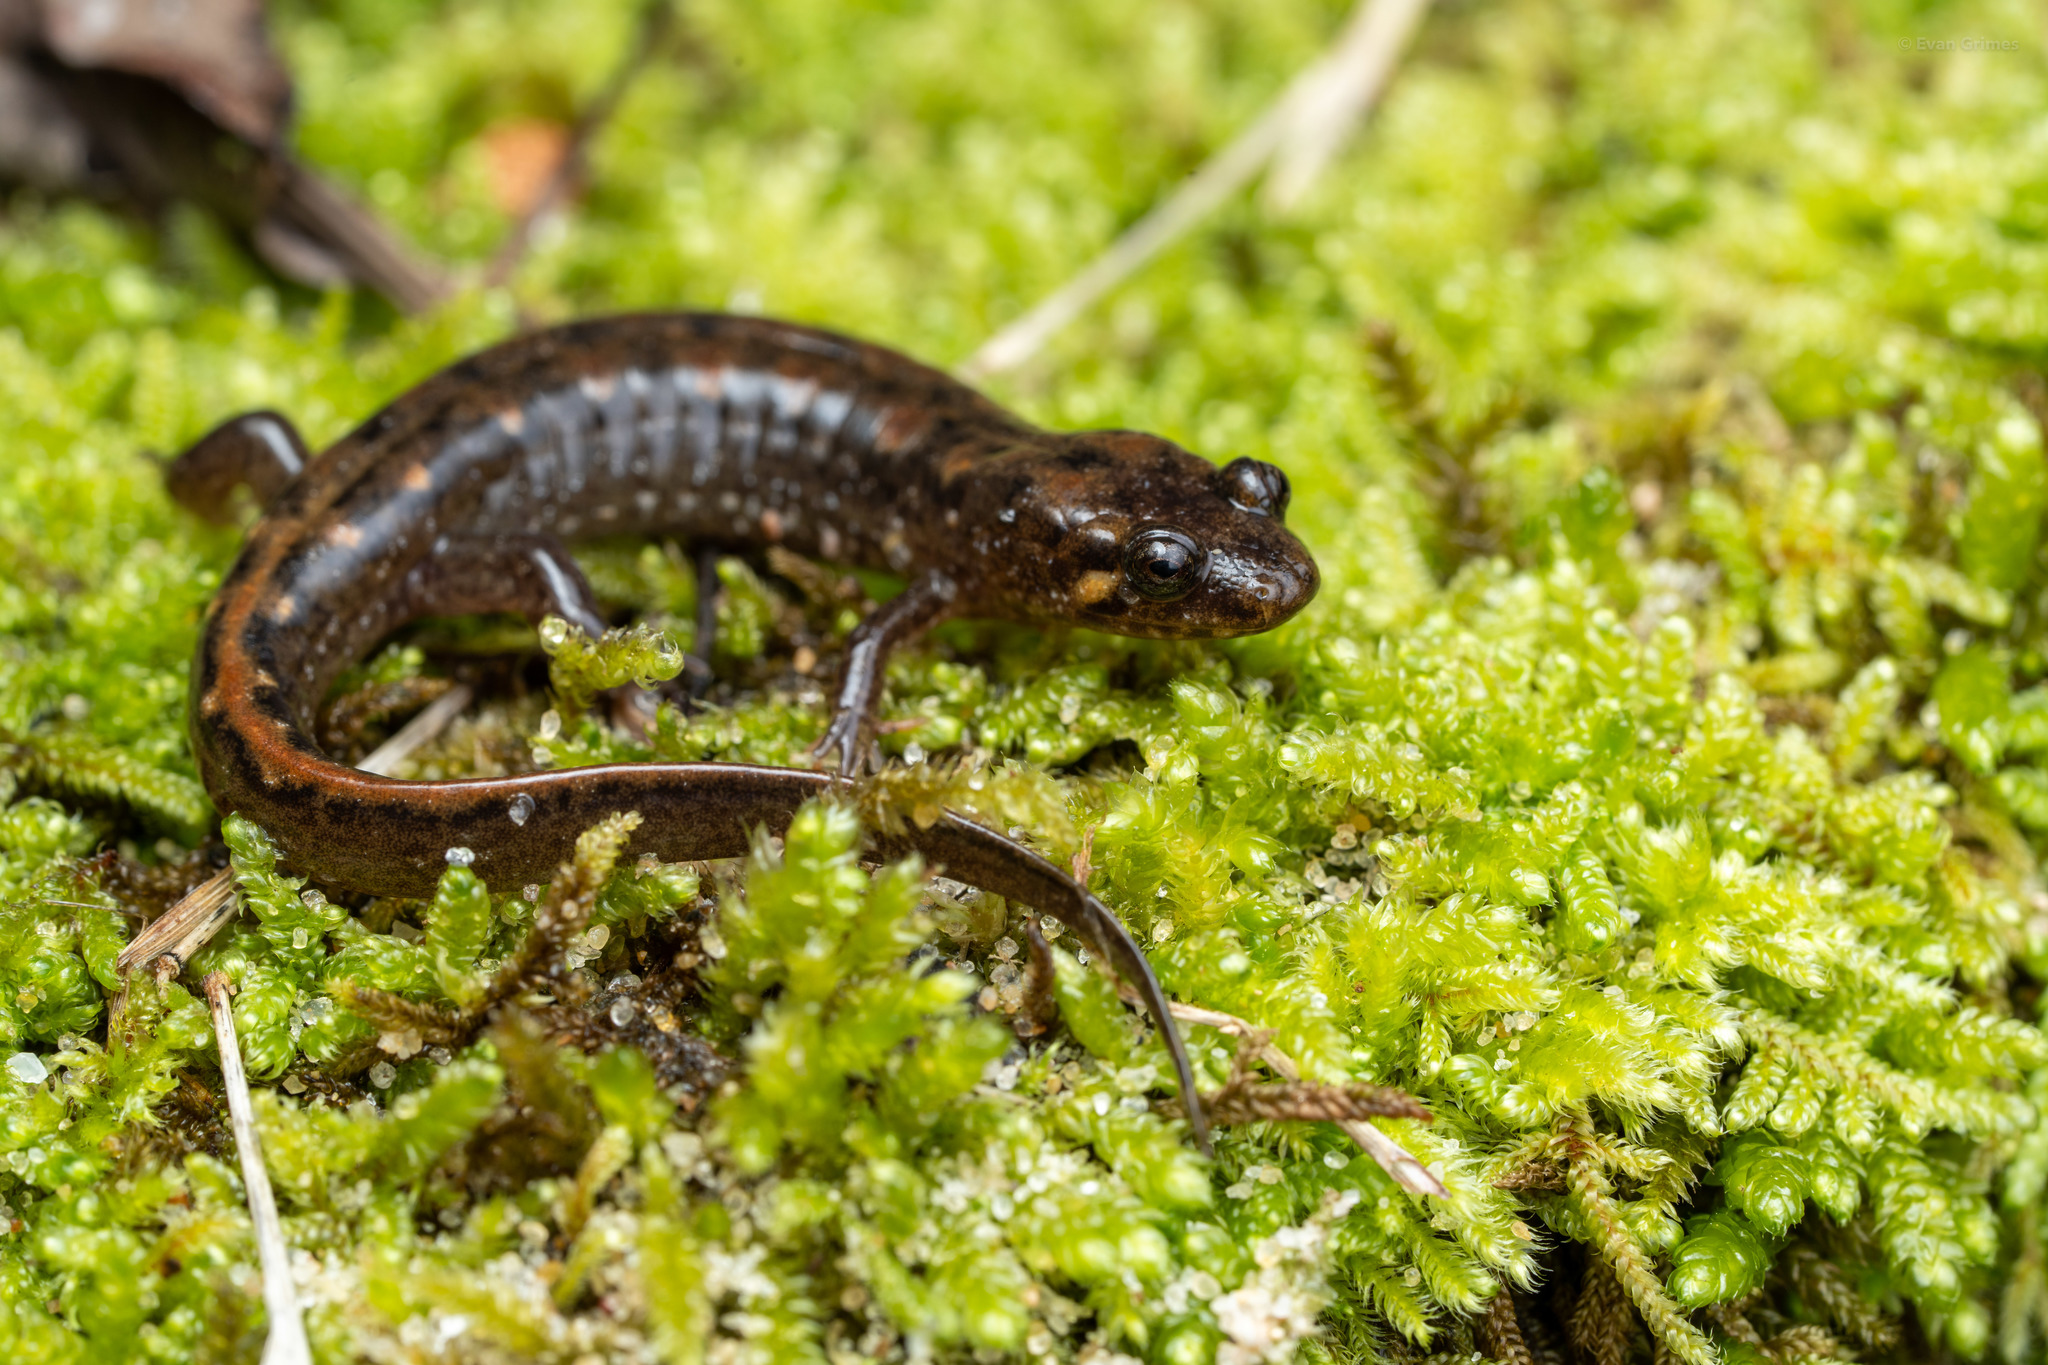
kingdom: Animalia
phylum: Chordata
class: Amphibia
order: Caudata
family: Plethodontidae
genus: Desmognathus
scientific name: Desmognathus
